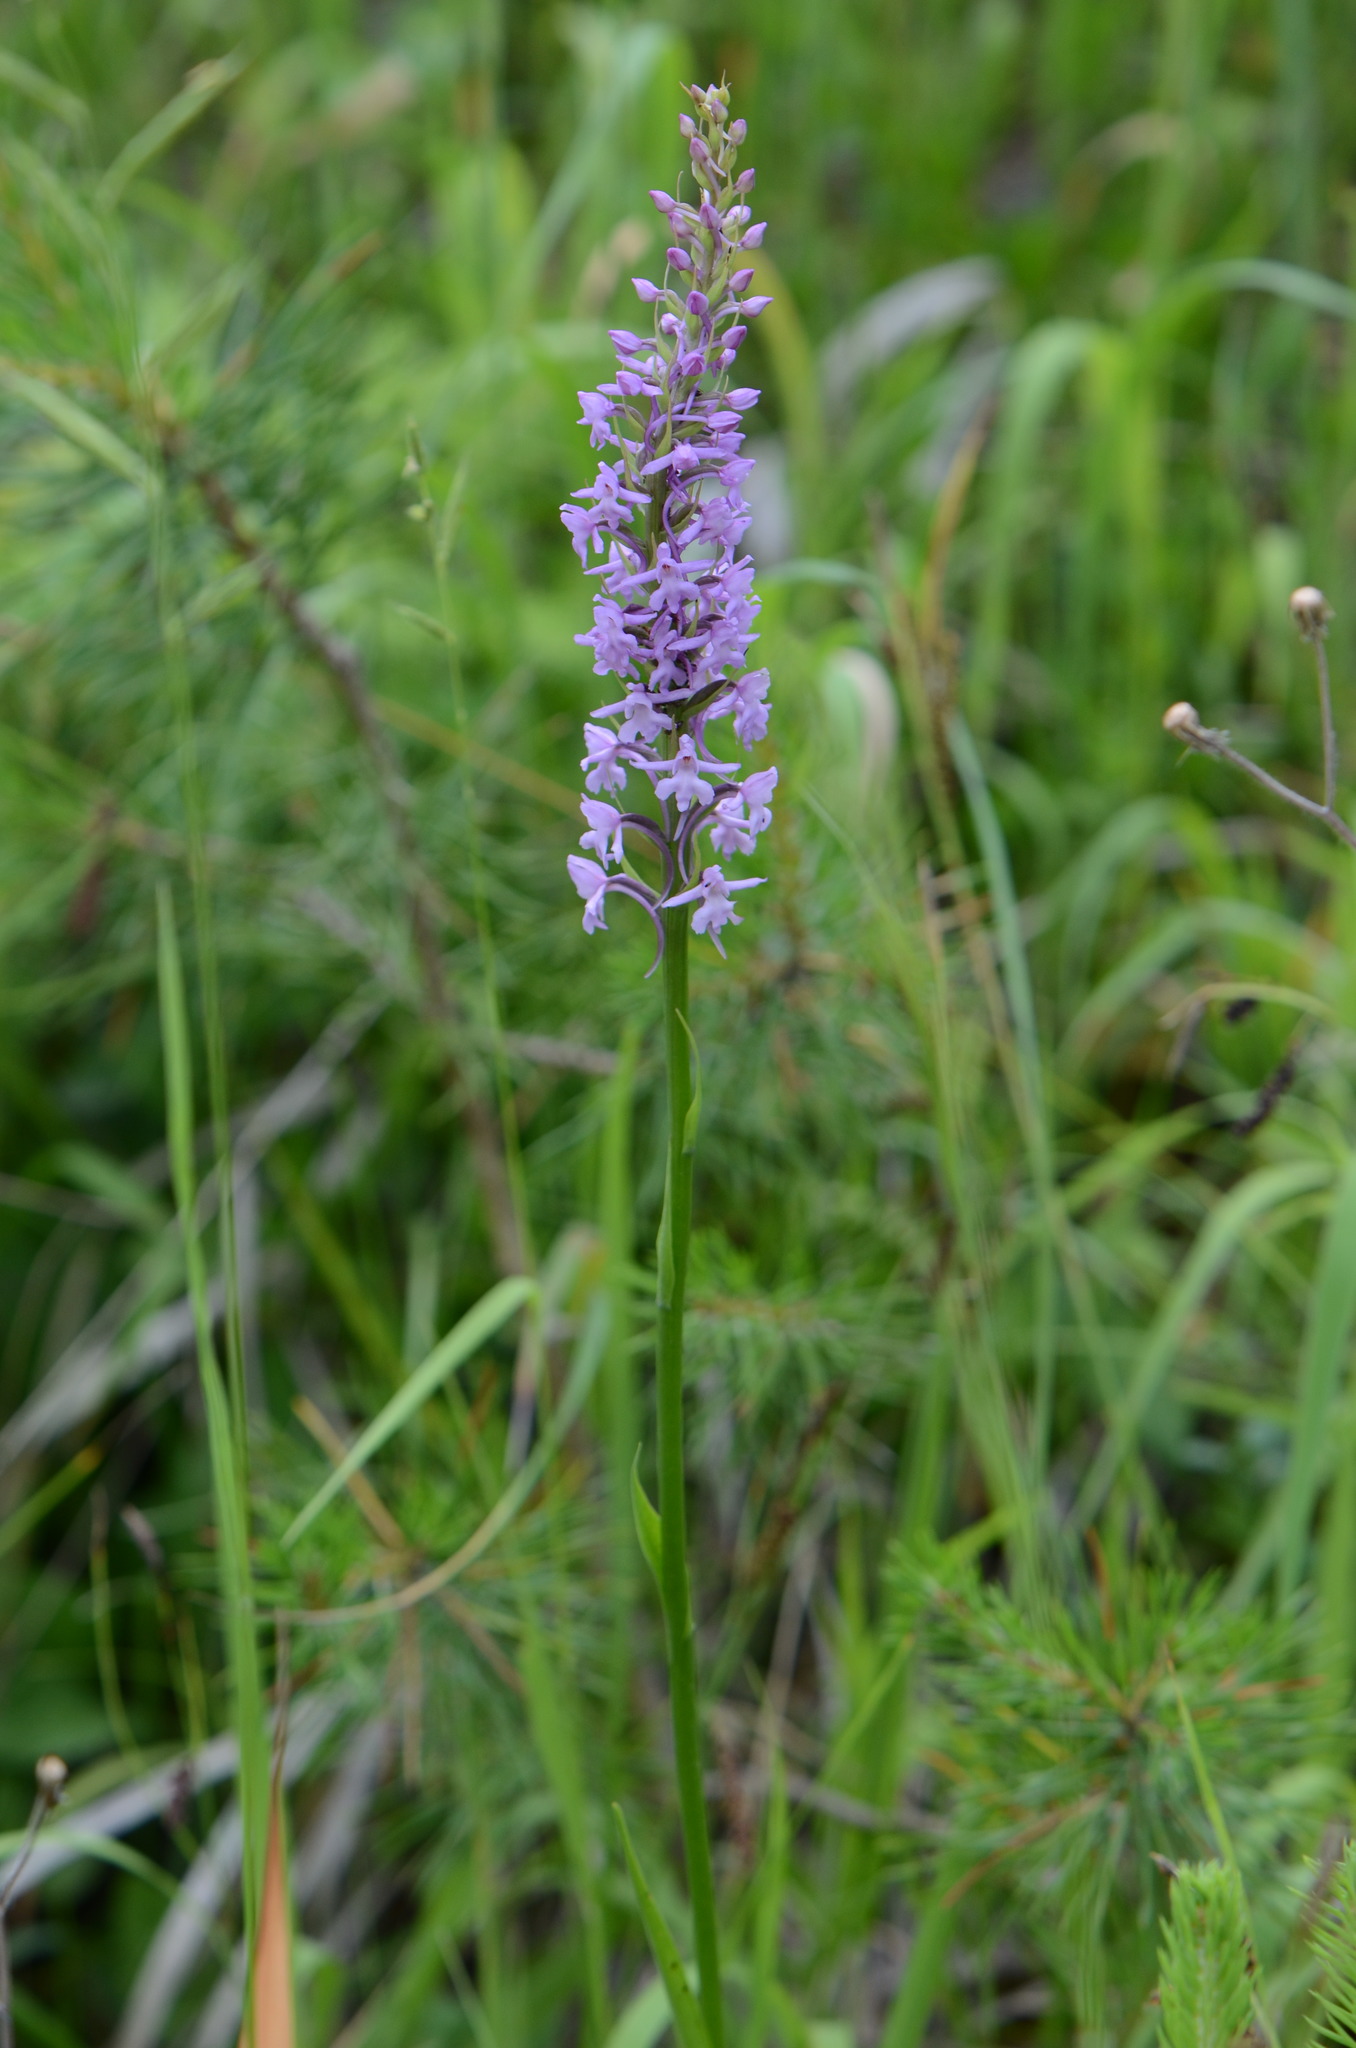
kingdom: Plantae
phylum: Tracheophyta
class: Liliopsida
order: Asparagales
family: Orchidaceae
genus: Gymnadenia
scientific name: Gymnadenia conopsea
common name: Fragrant orchid
